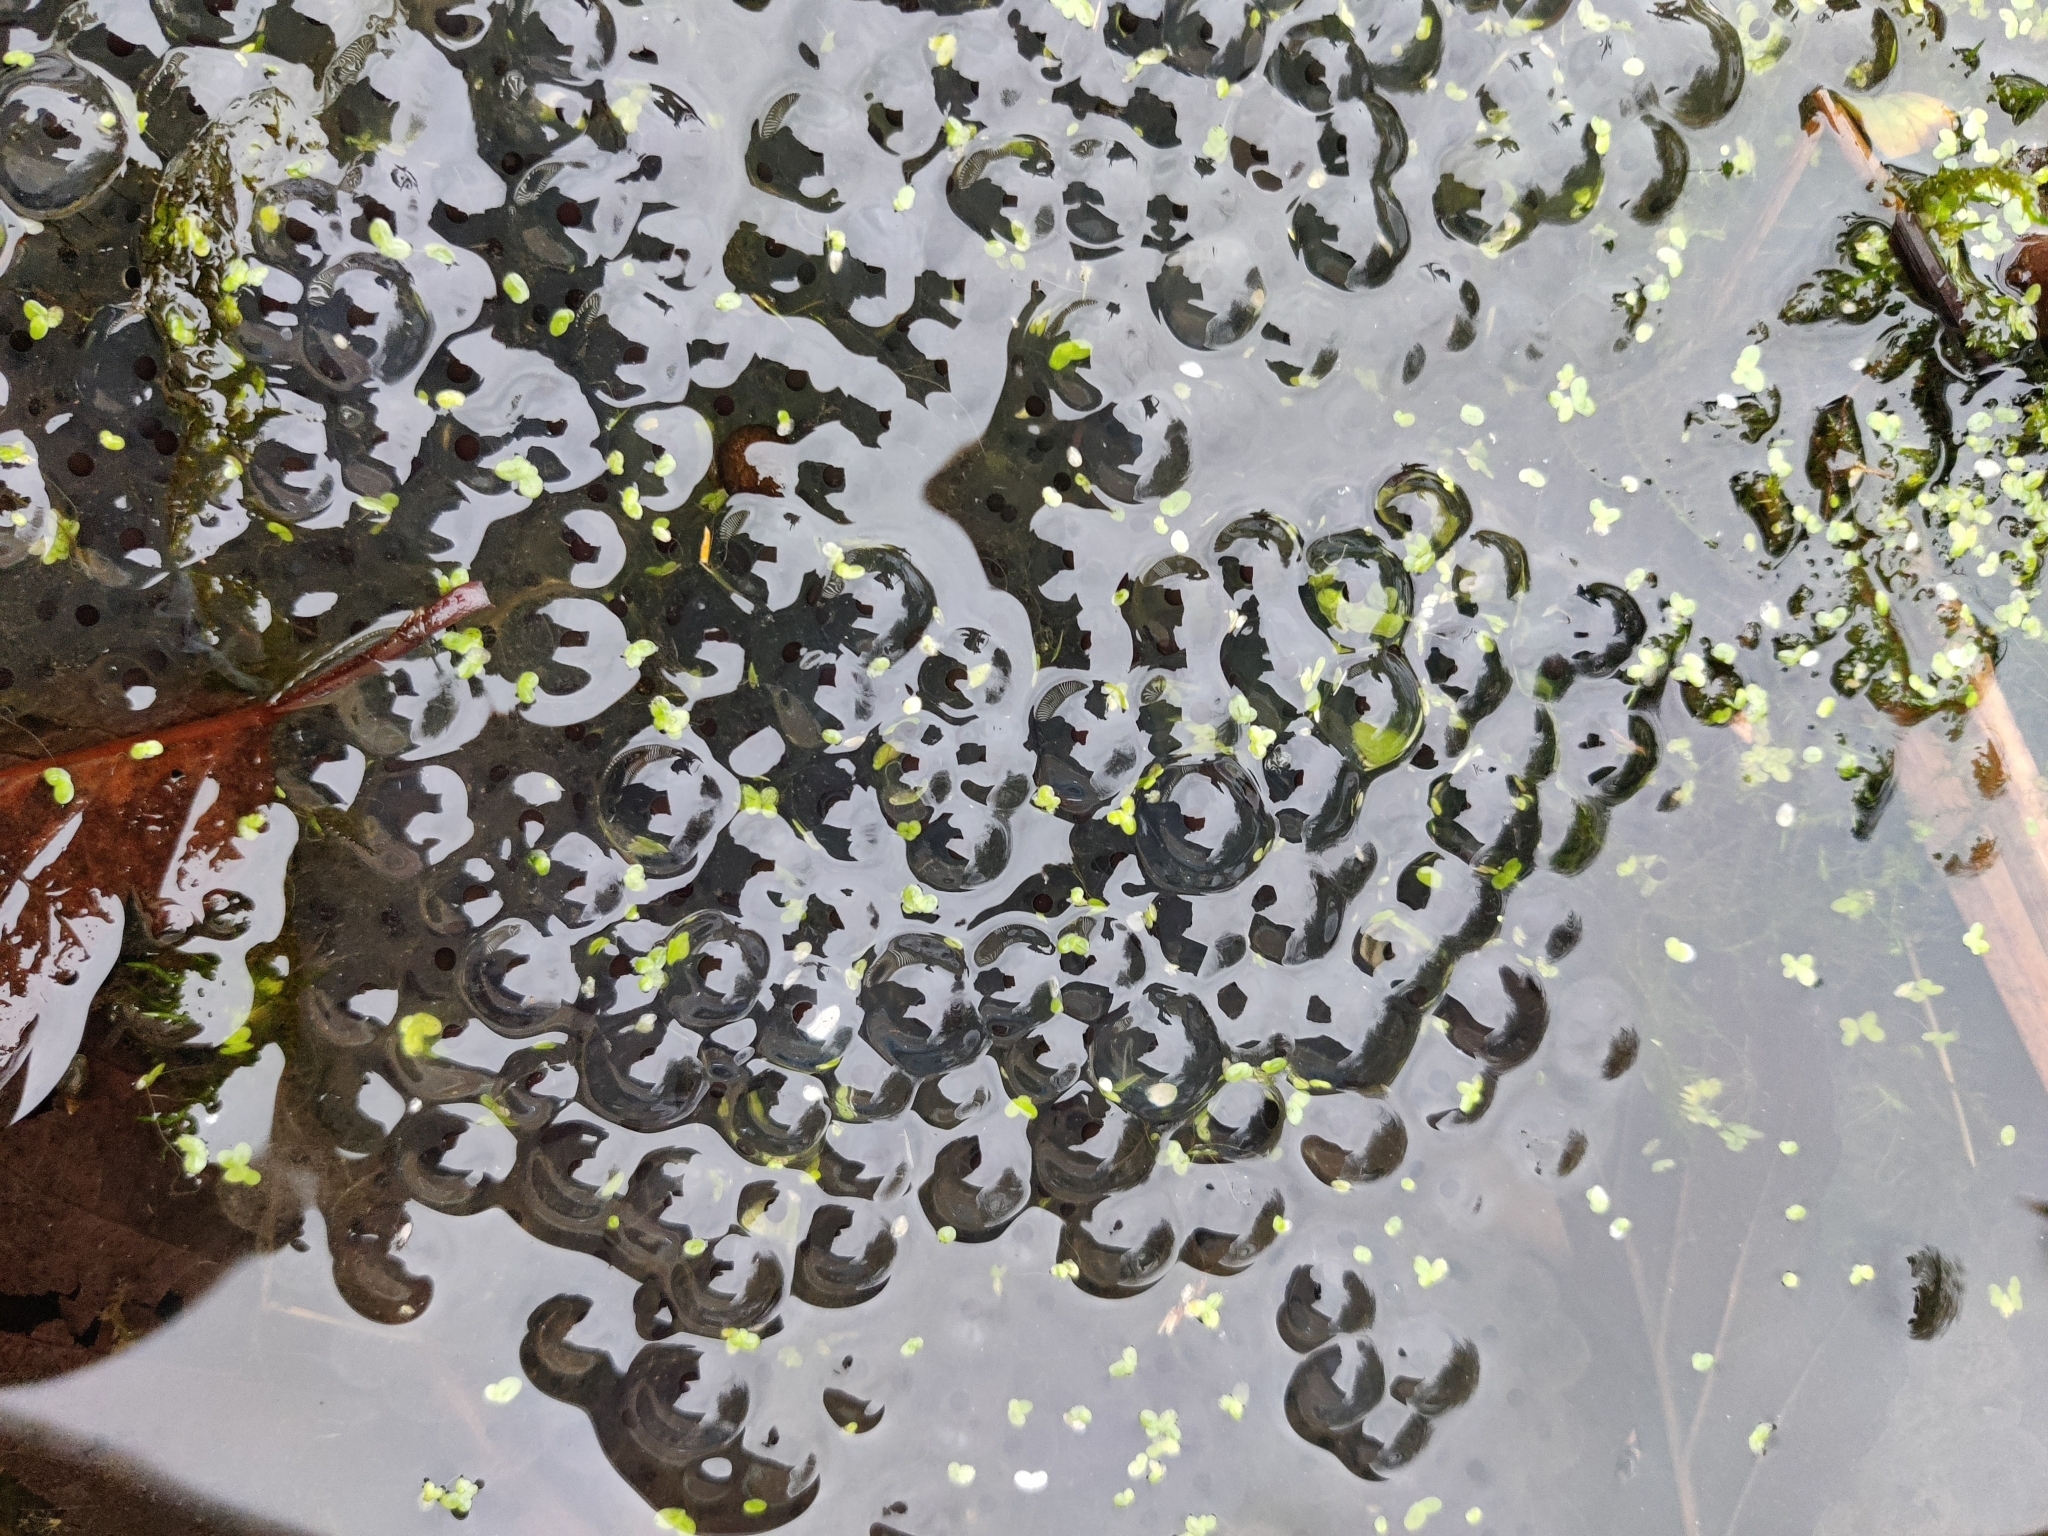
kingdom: Animalia
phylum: Chordata
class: Amphibia
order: Anura
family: Ranidae
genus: Rana
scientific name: Rana temporaria
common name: Common frog
